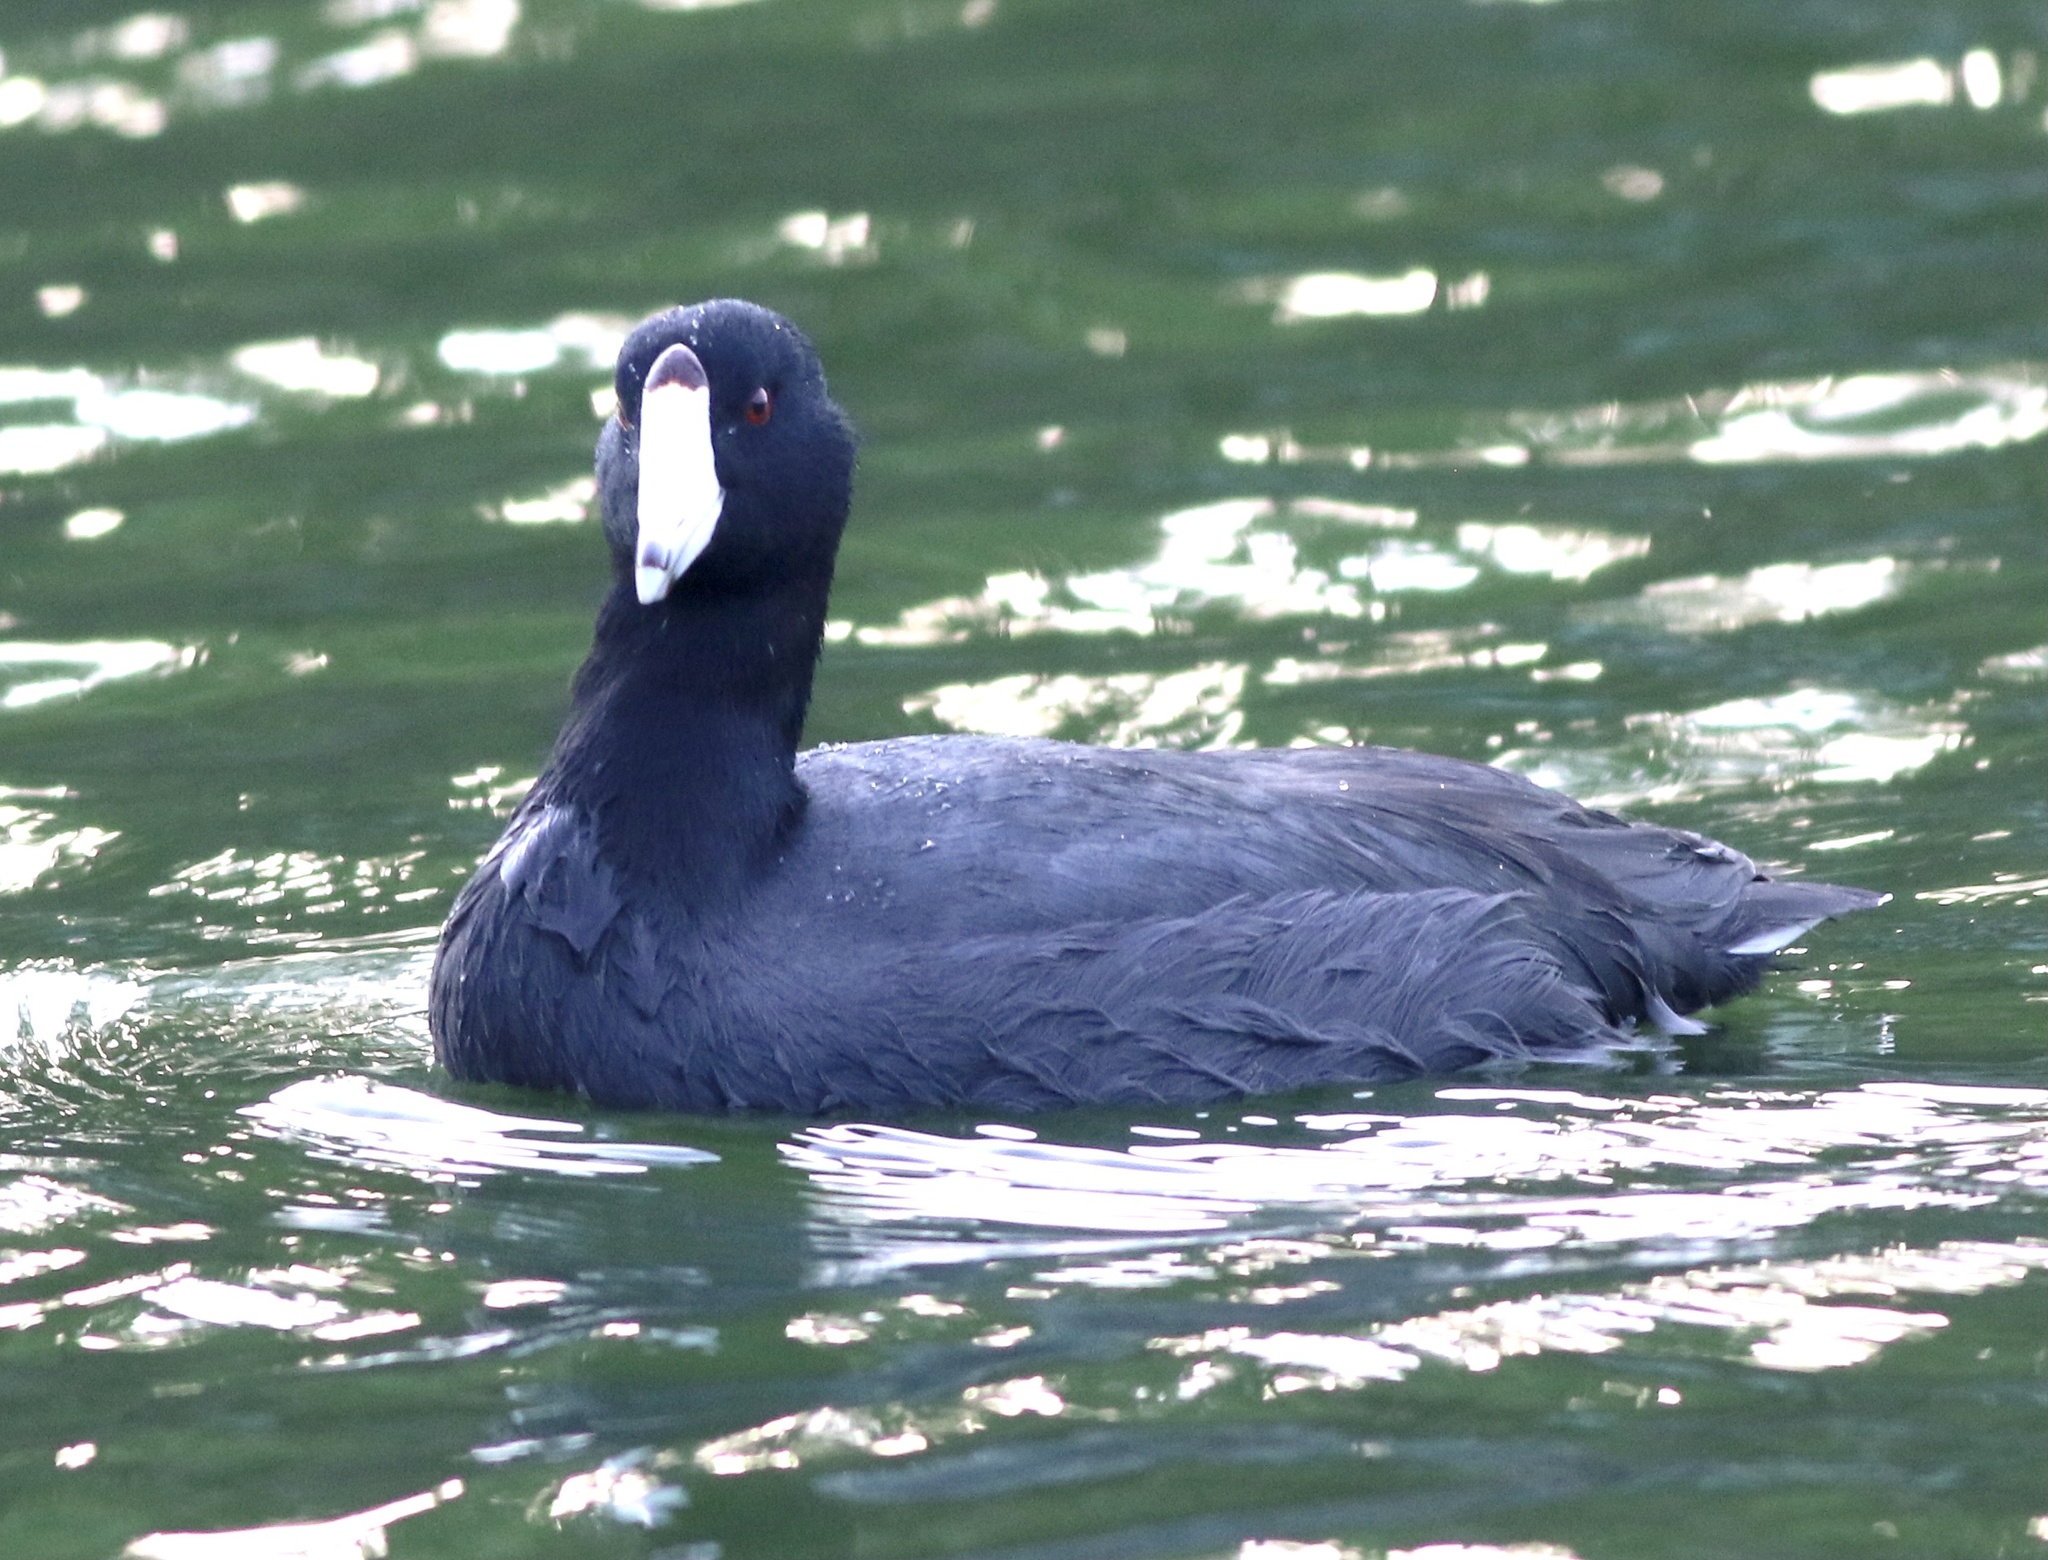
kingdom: Animalia
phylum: Chordata
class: Aves
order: Gruiformes
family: Rallidae
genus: Fulica
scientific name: Fulica americana
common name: American coot
